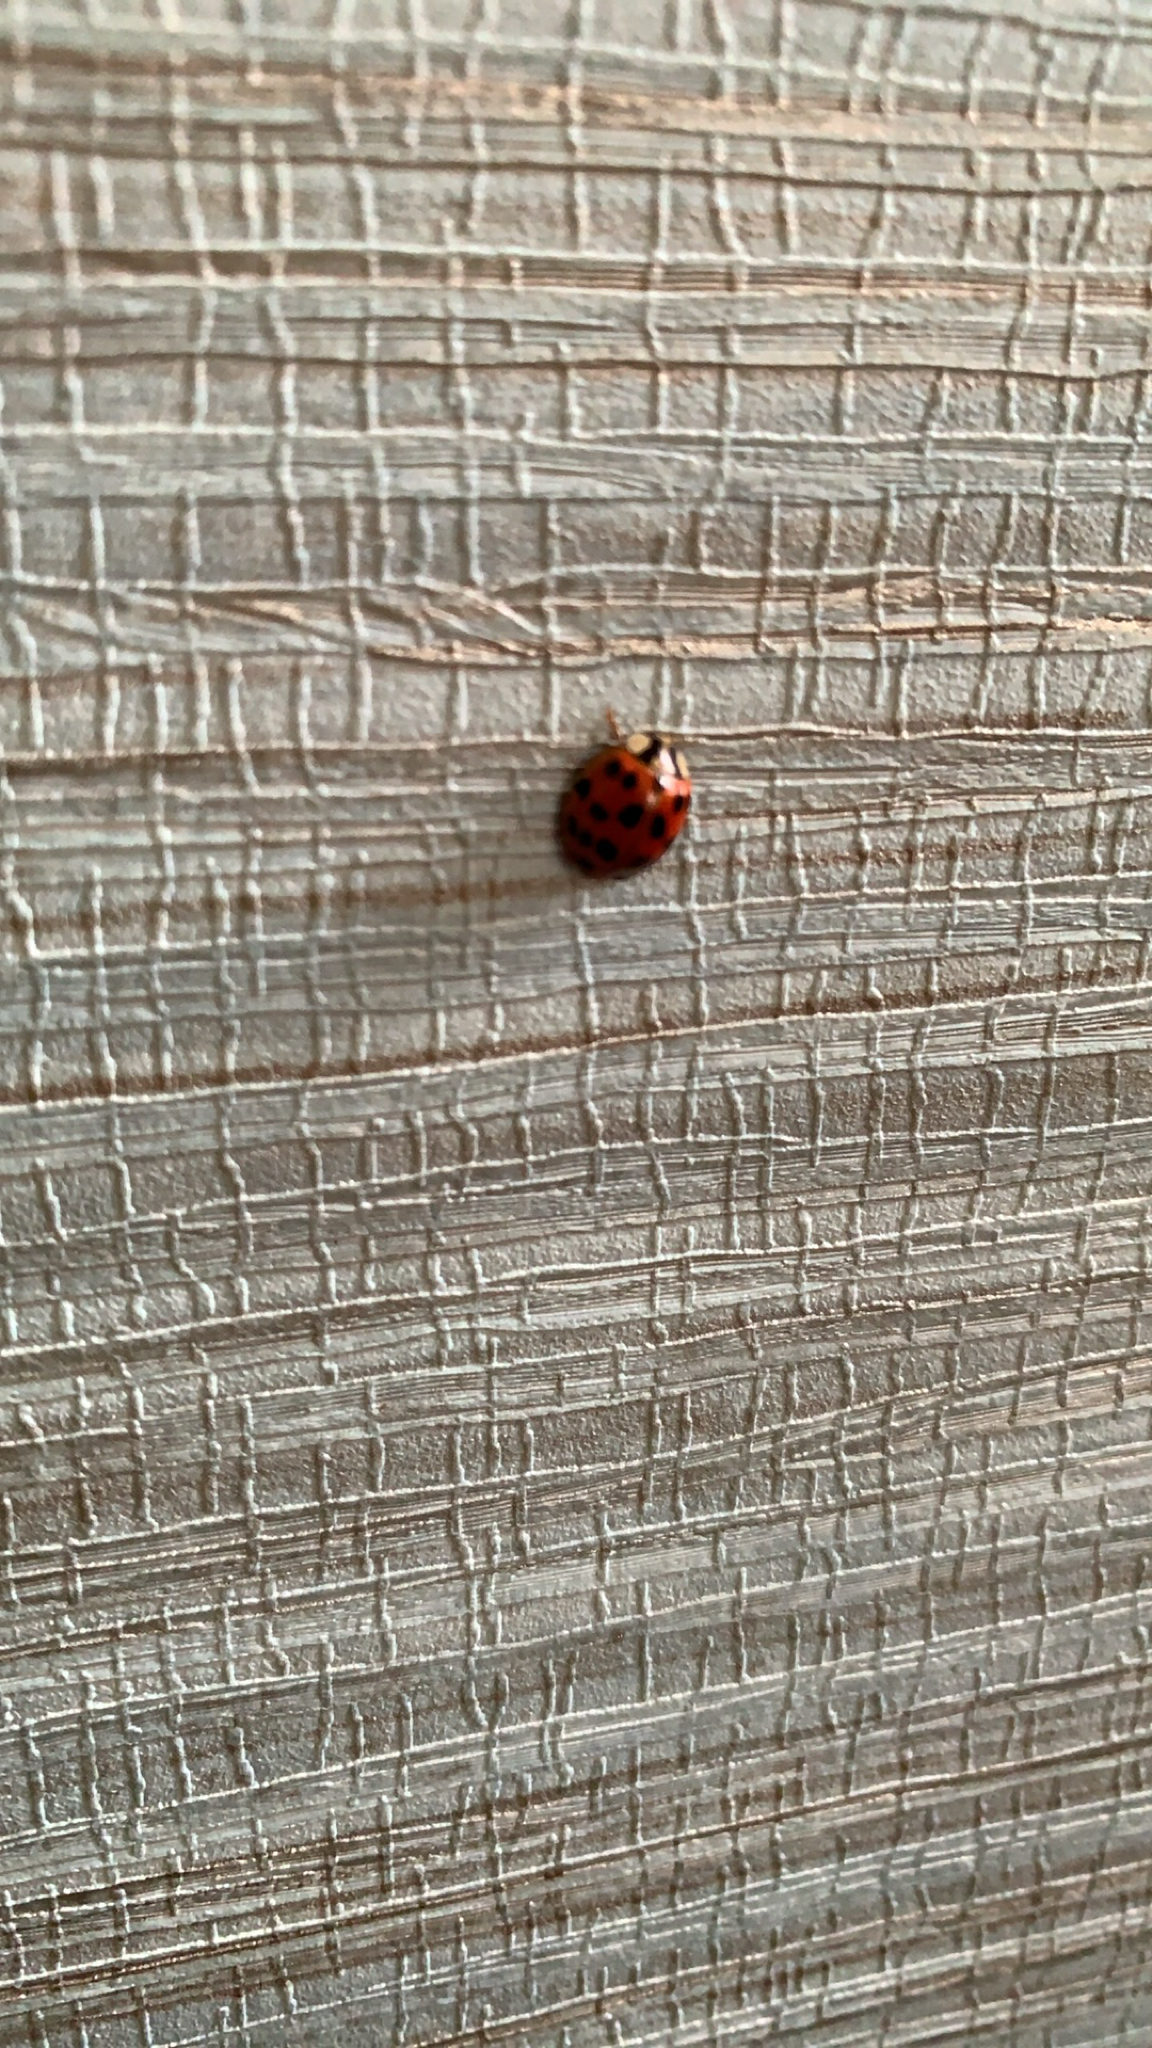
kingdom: Animalia
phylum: Arthropoda
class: Insecta
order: Coleoptera
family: Coccinellidae
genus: Harmonia
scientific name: Harmonia axyridis
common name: Harlequin ladybird
